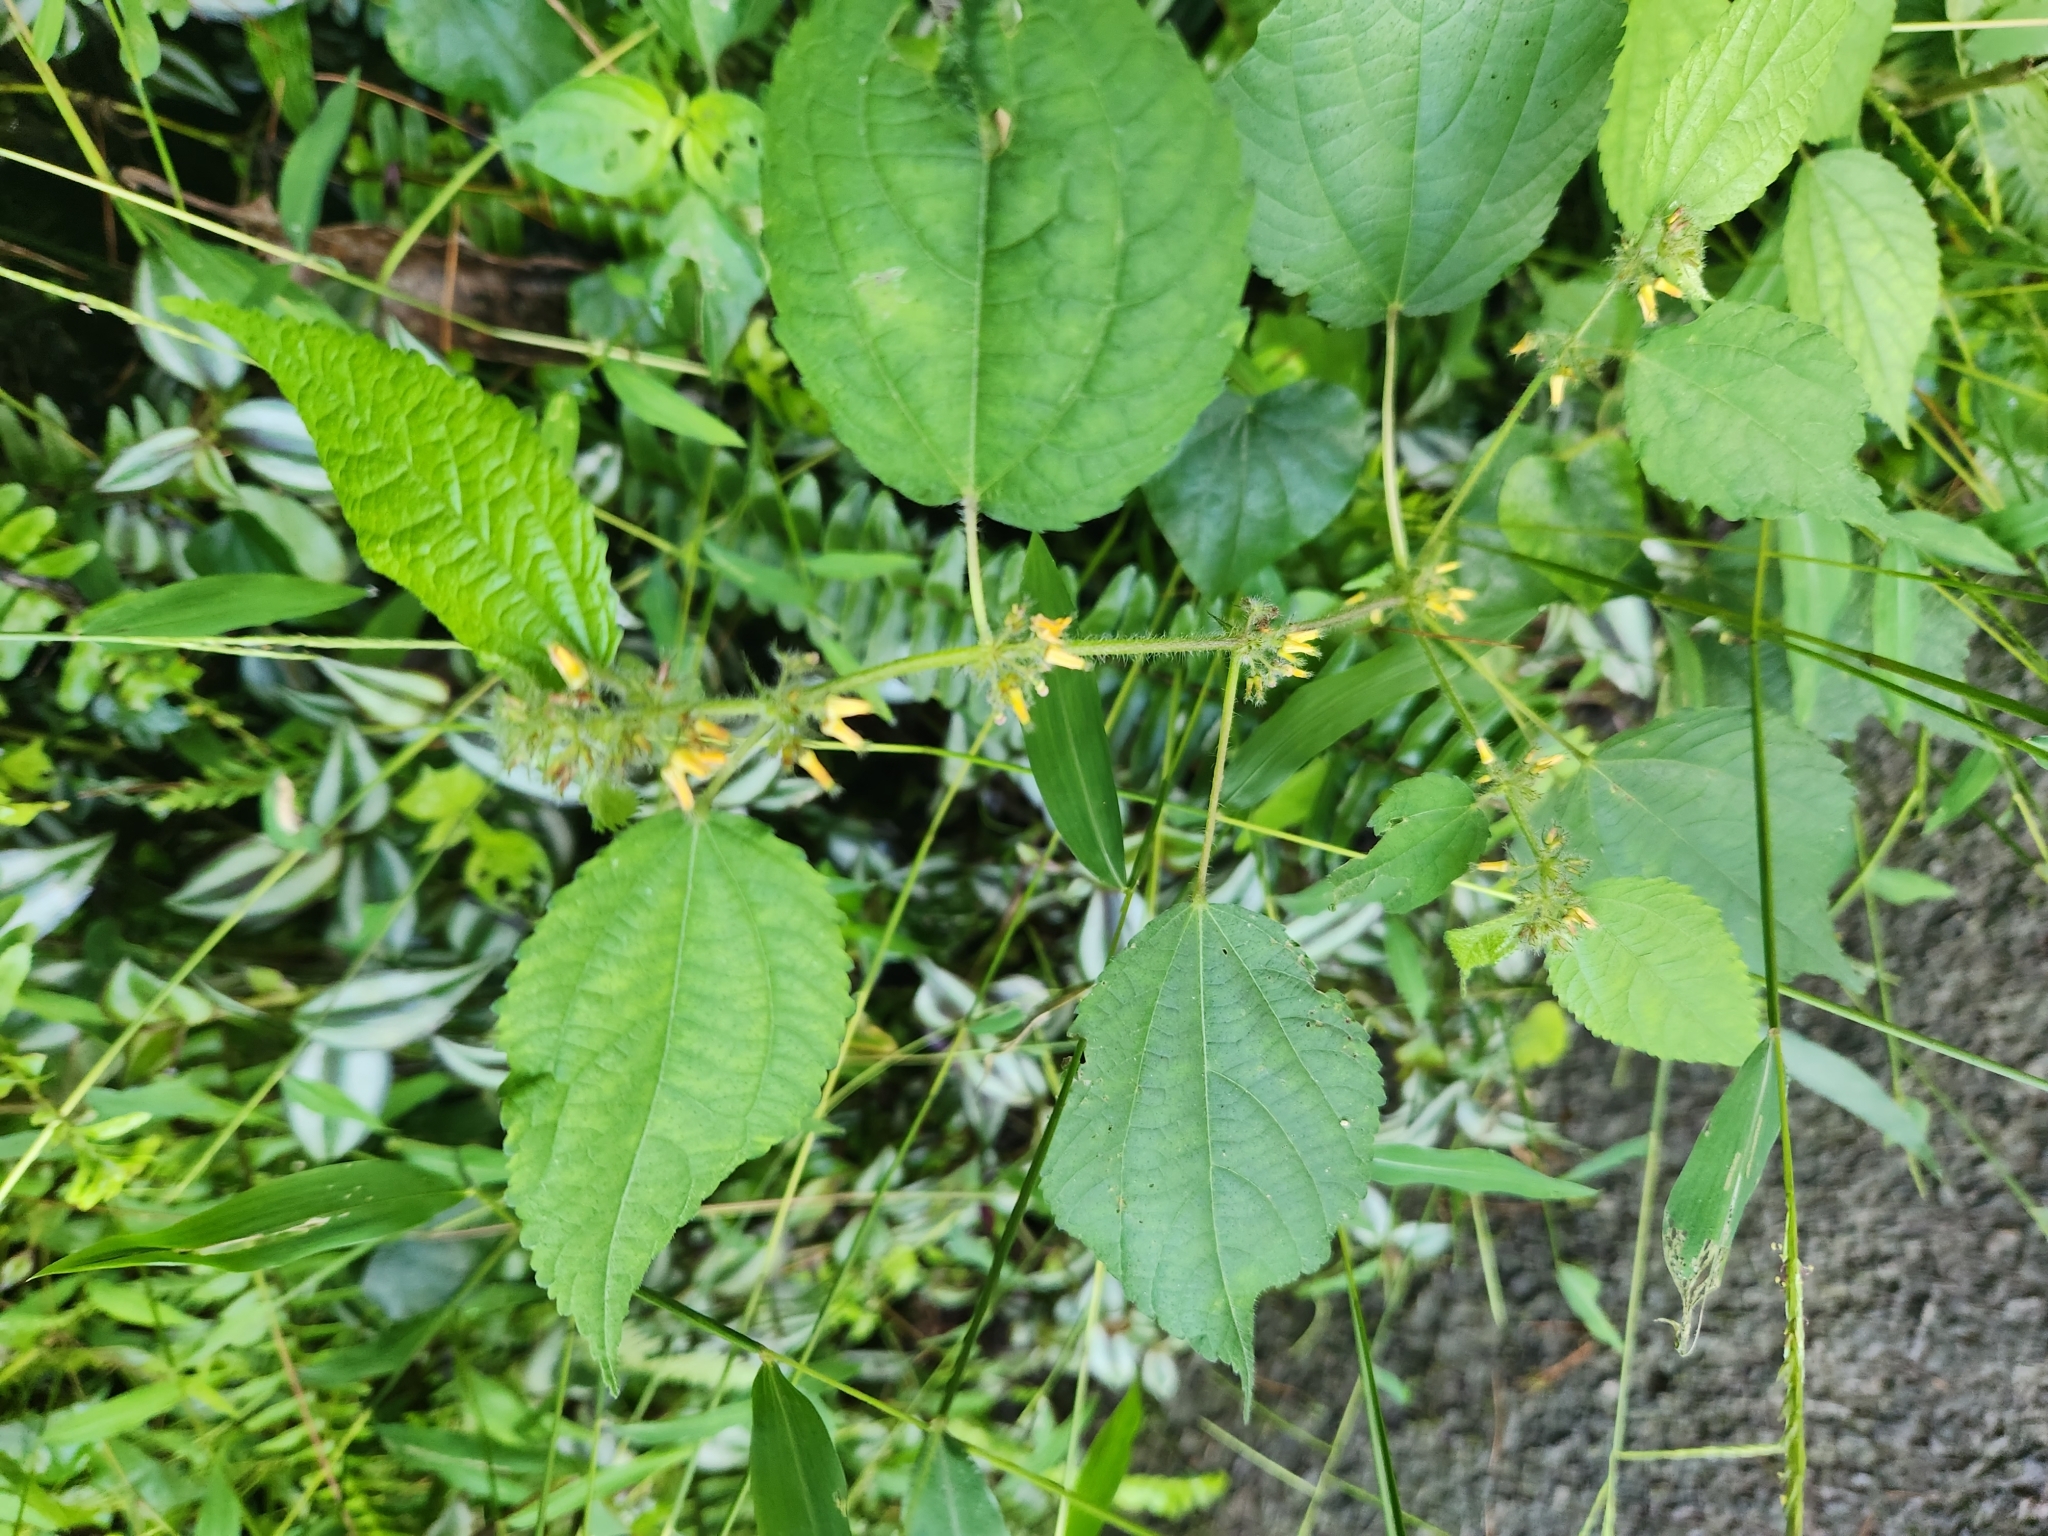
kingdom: Plantae
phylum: Tracheophyta
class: Magnoliopsida
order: Malvales
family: Malvaceae
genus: Triumfetta
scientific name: Triumfetta pilosa
